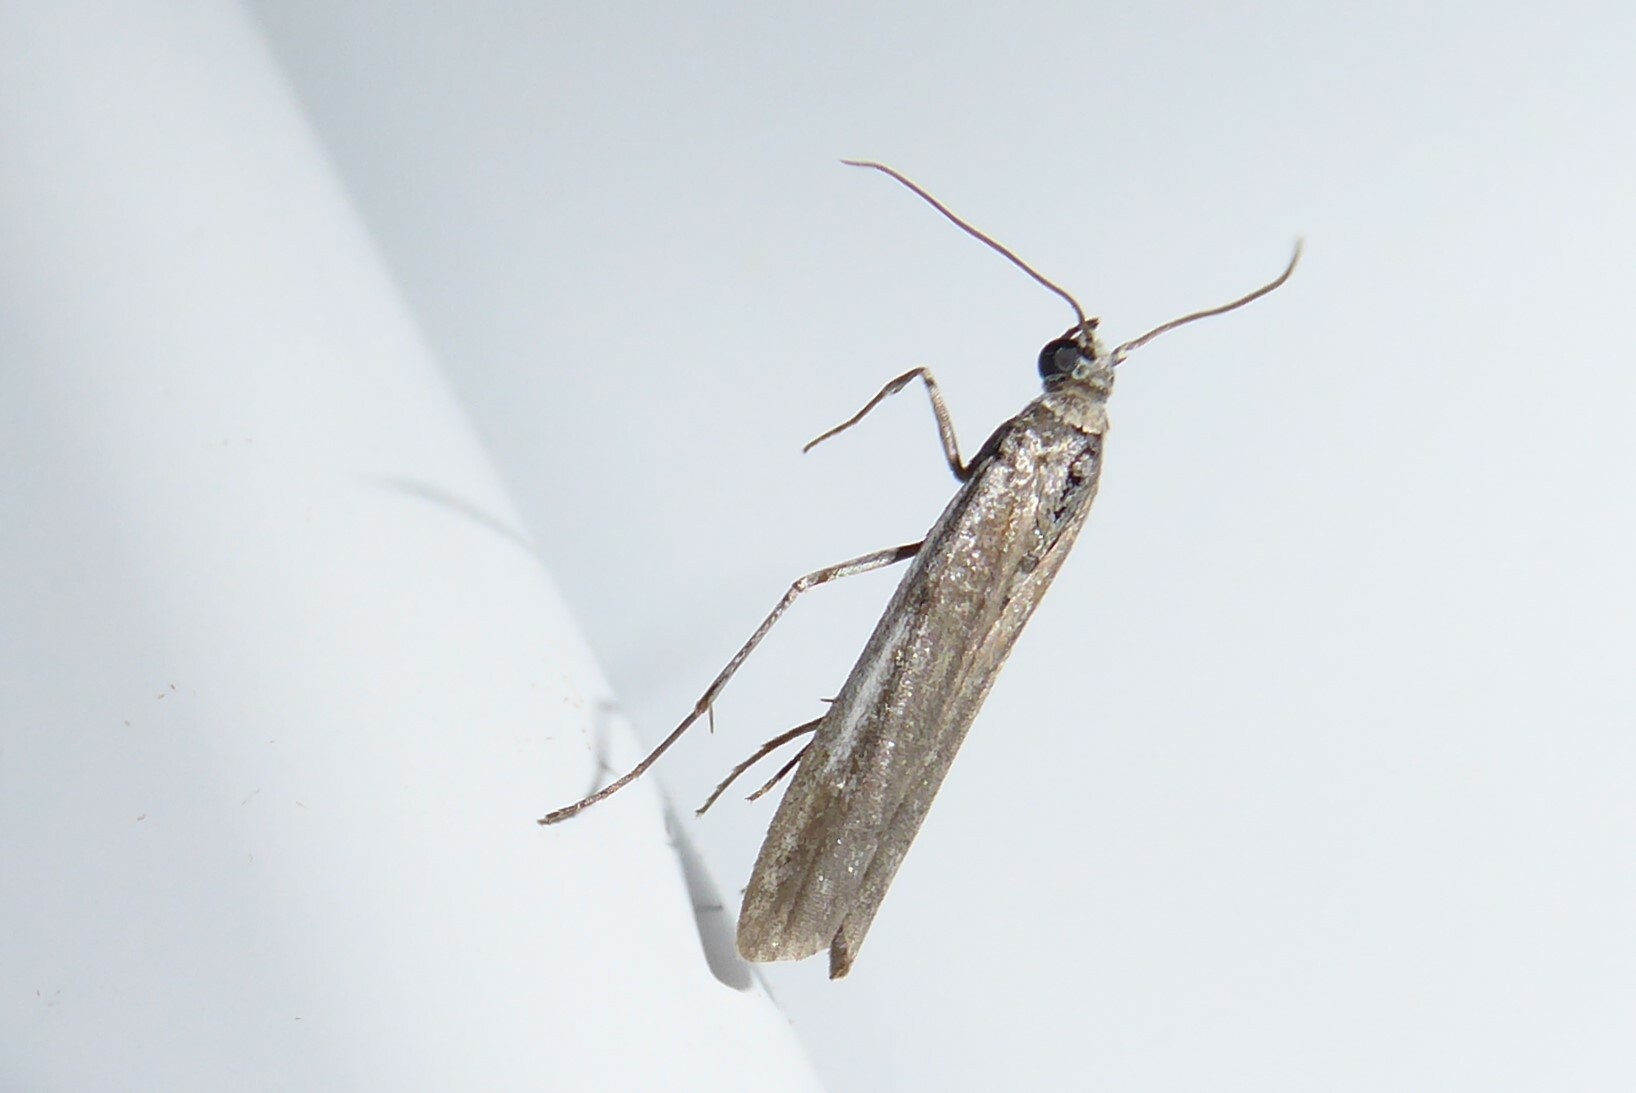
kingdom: Animalia
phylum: Arthropoda
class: Insecta
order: Lepidoptera
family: Pyralidae
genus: Patagoniodes
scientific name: Patagoniodes farinaria
